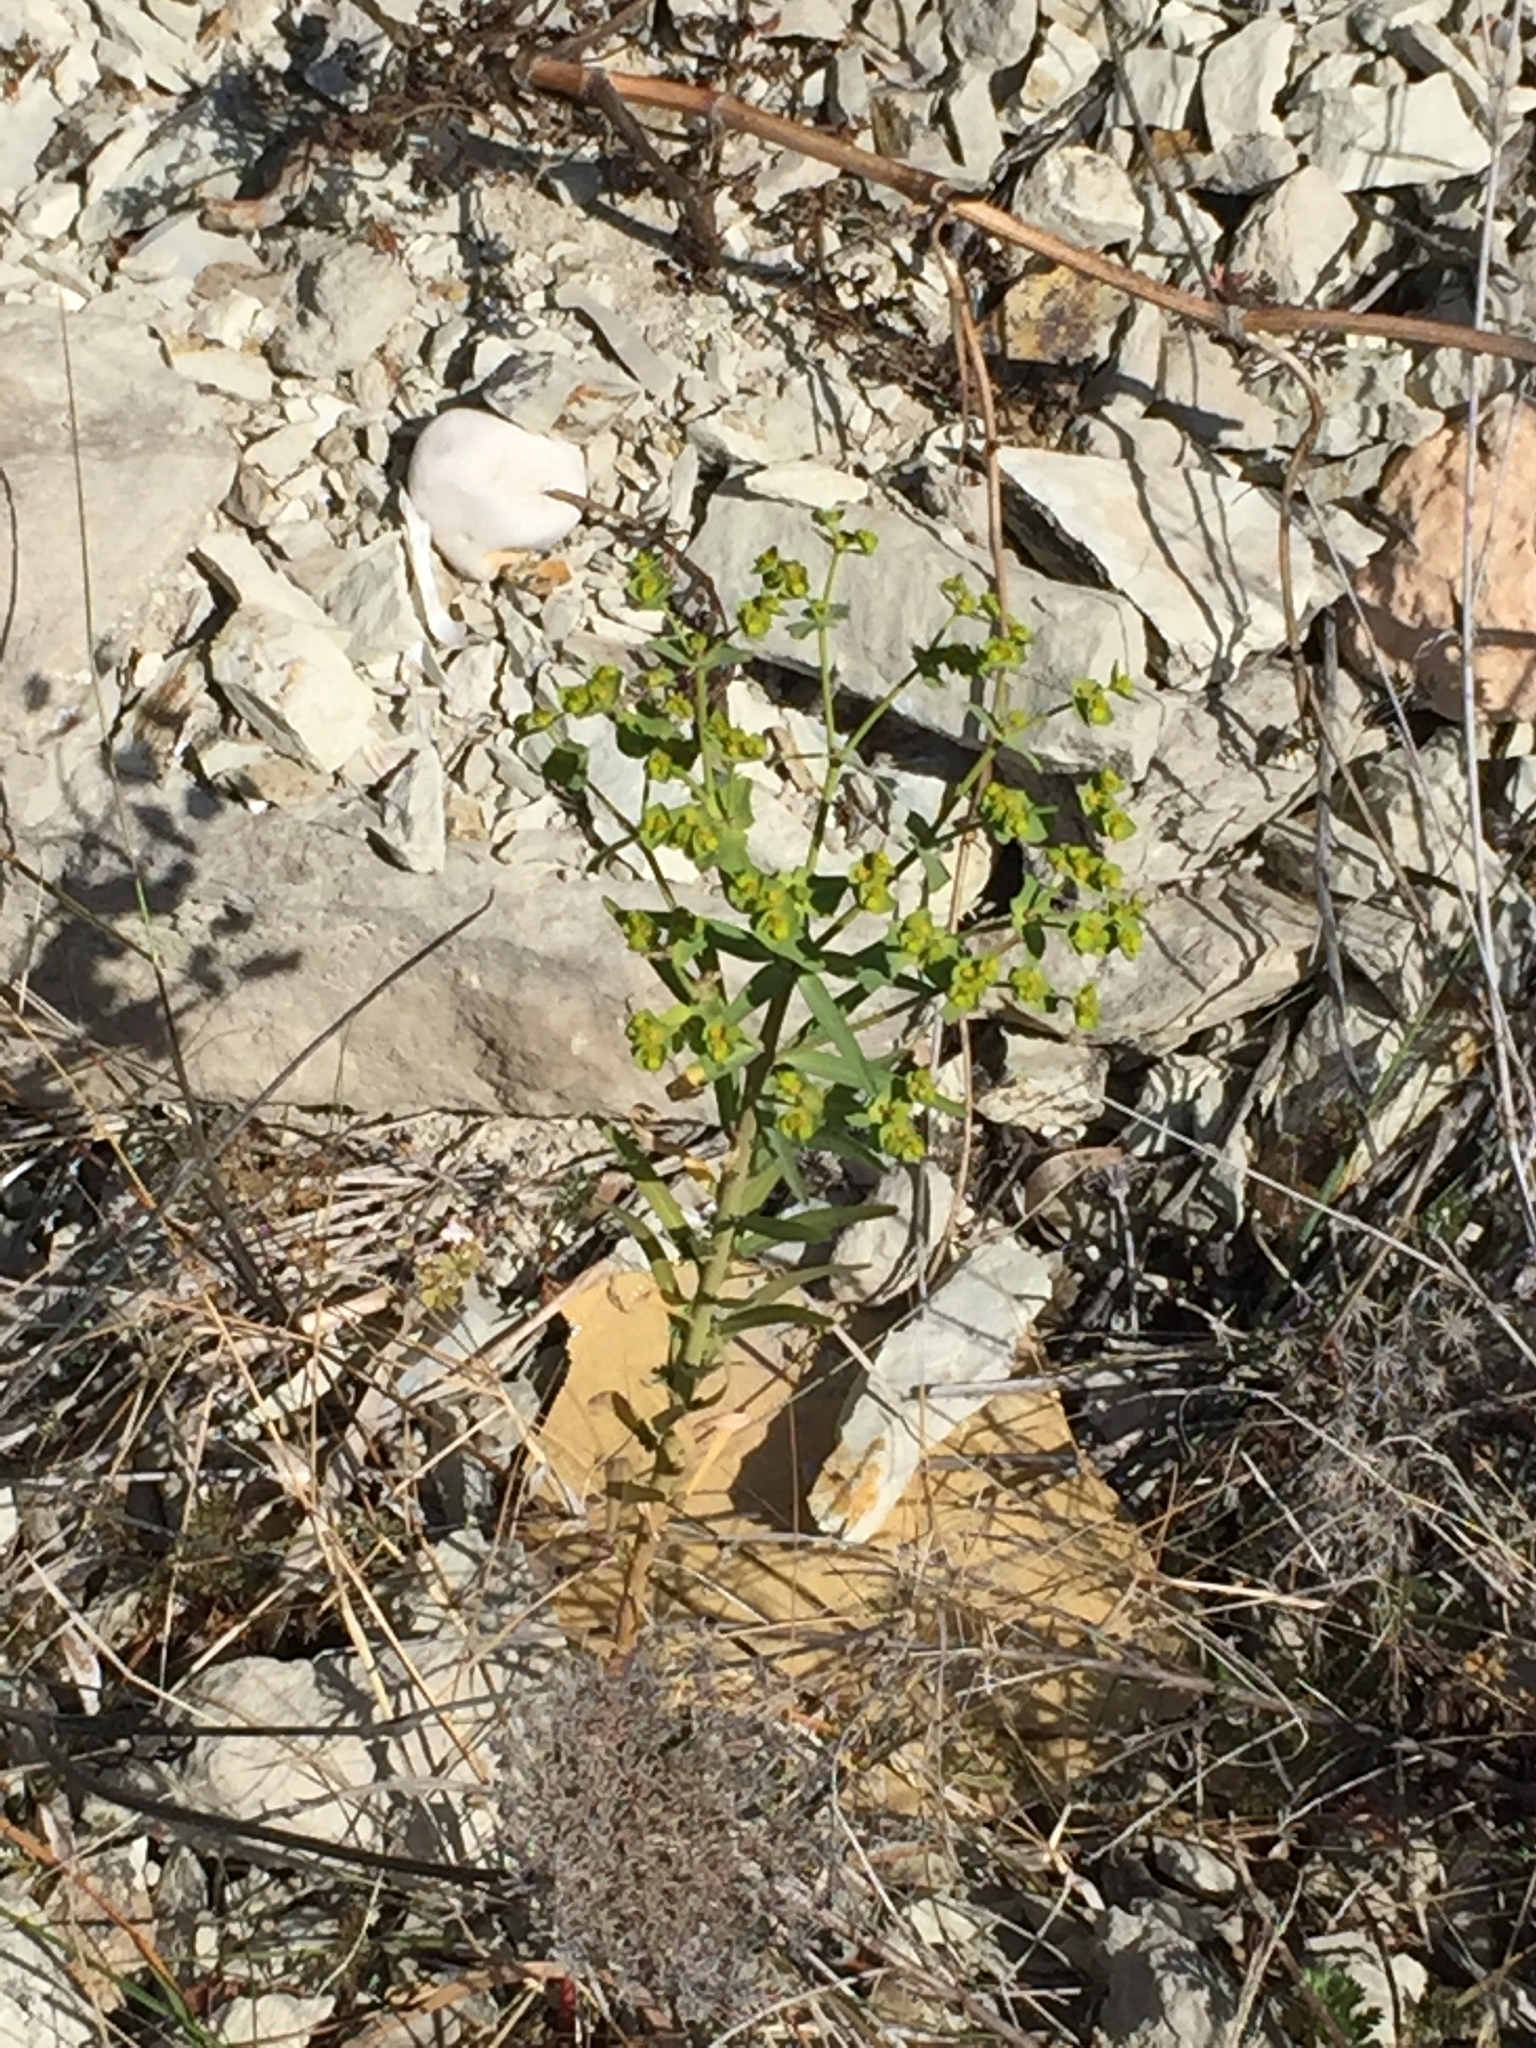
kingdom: Plantae
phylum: Tracheophyta
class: Magnoliopsida
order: Malpighiales
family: Euphorbiaceae
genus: Euphorbia
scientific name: Euphorbia medicaginea
